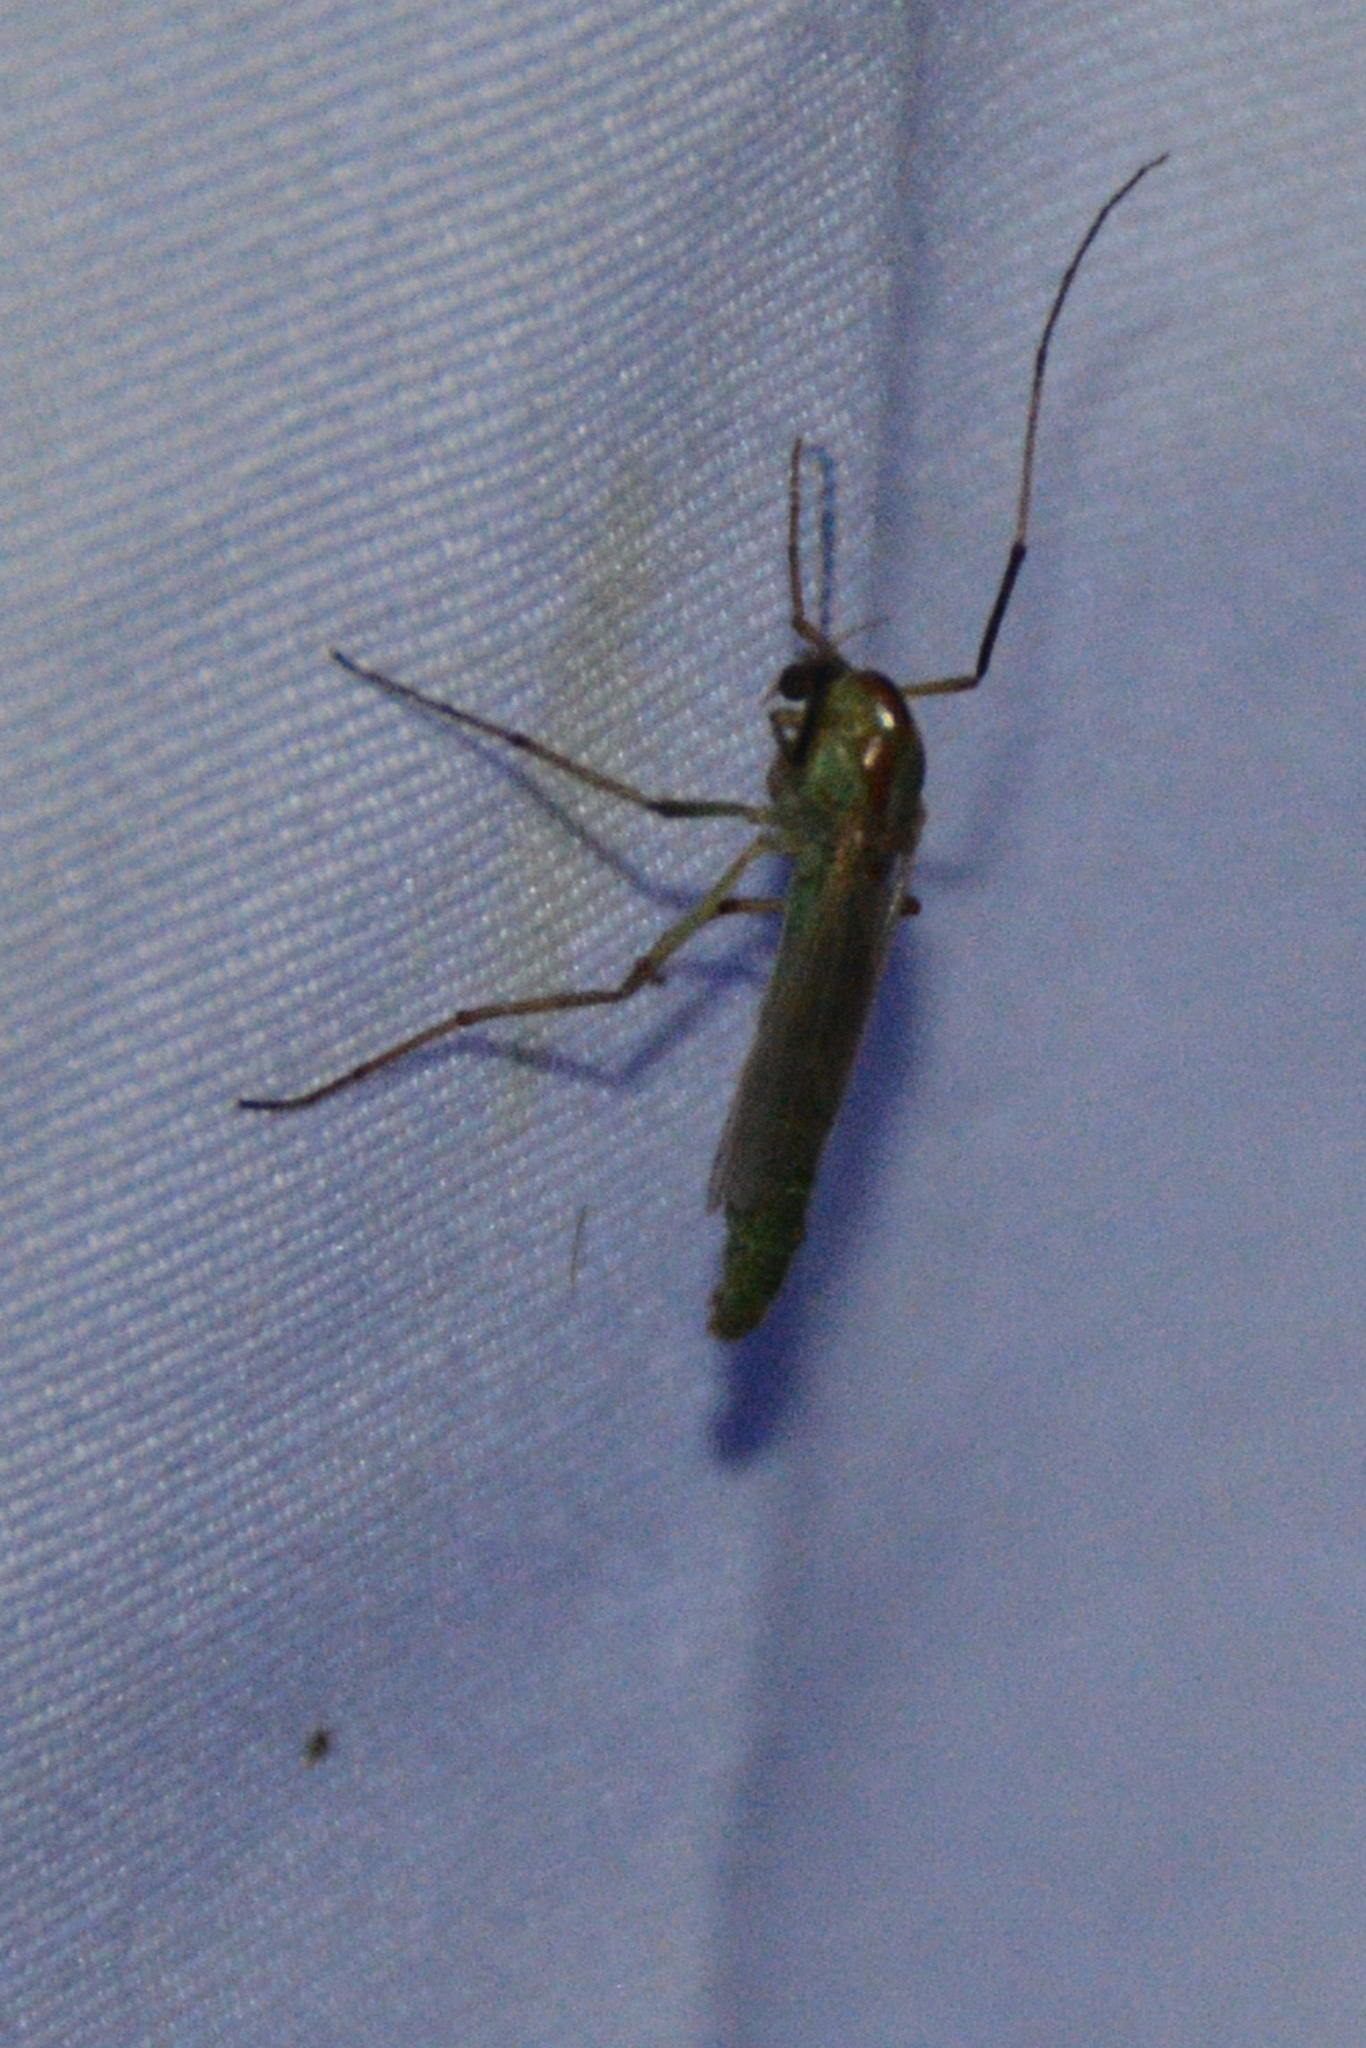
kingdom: Animalia
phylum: Arthropoda
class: Insecta
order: Diptera
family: Chironomidae
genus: Axarus
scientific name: Axarus
